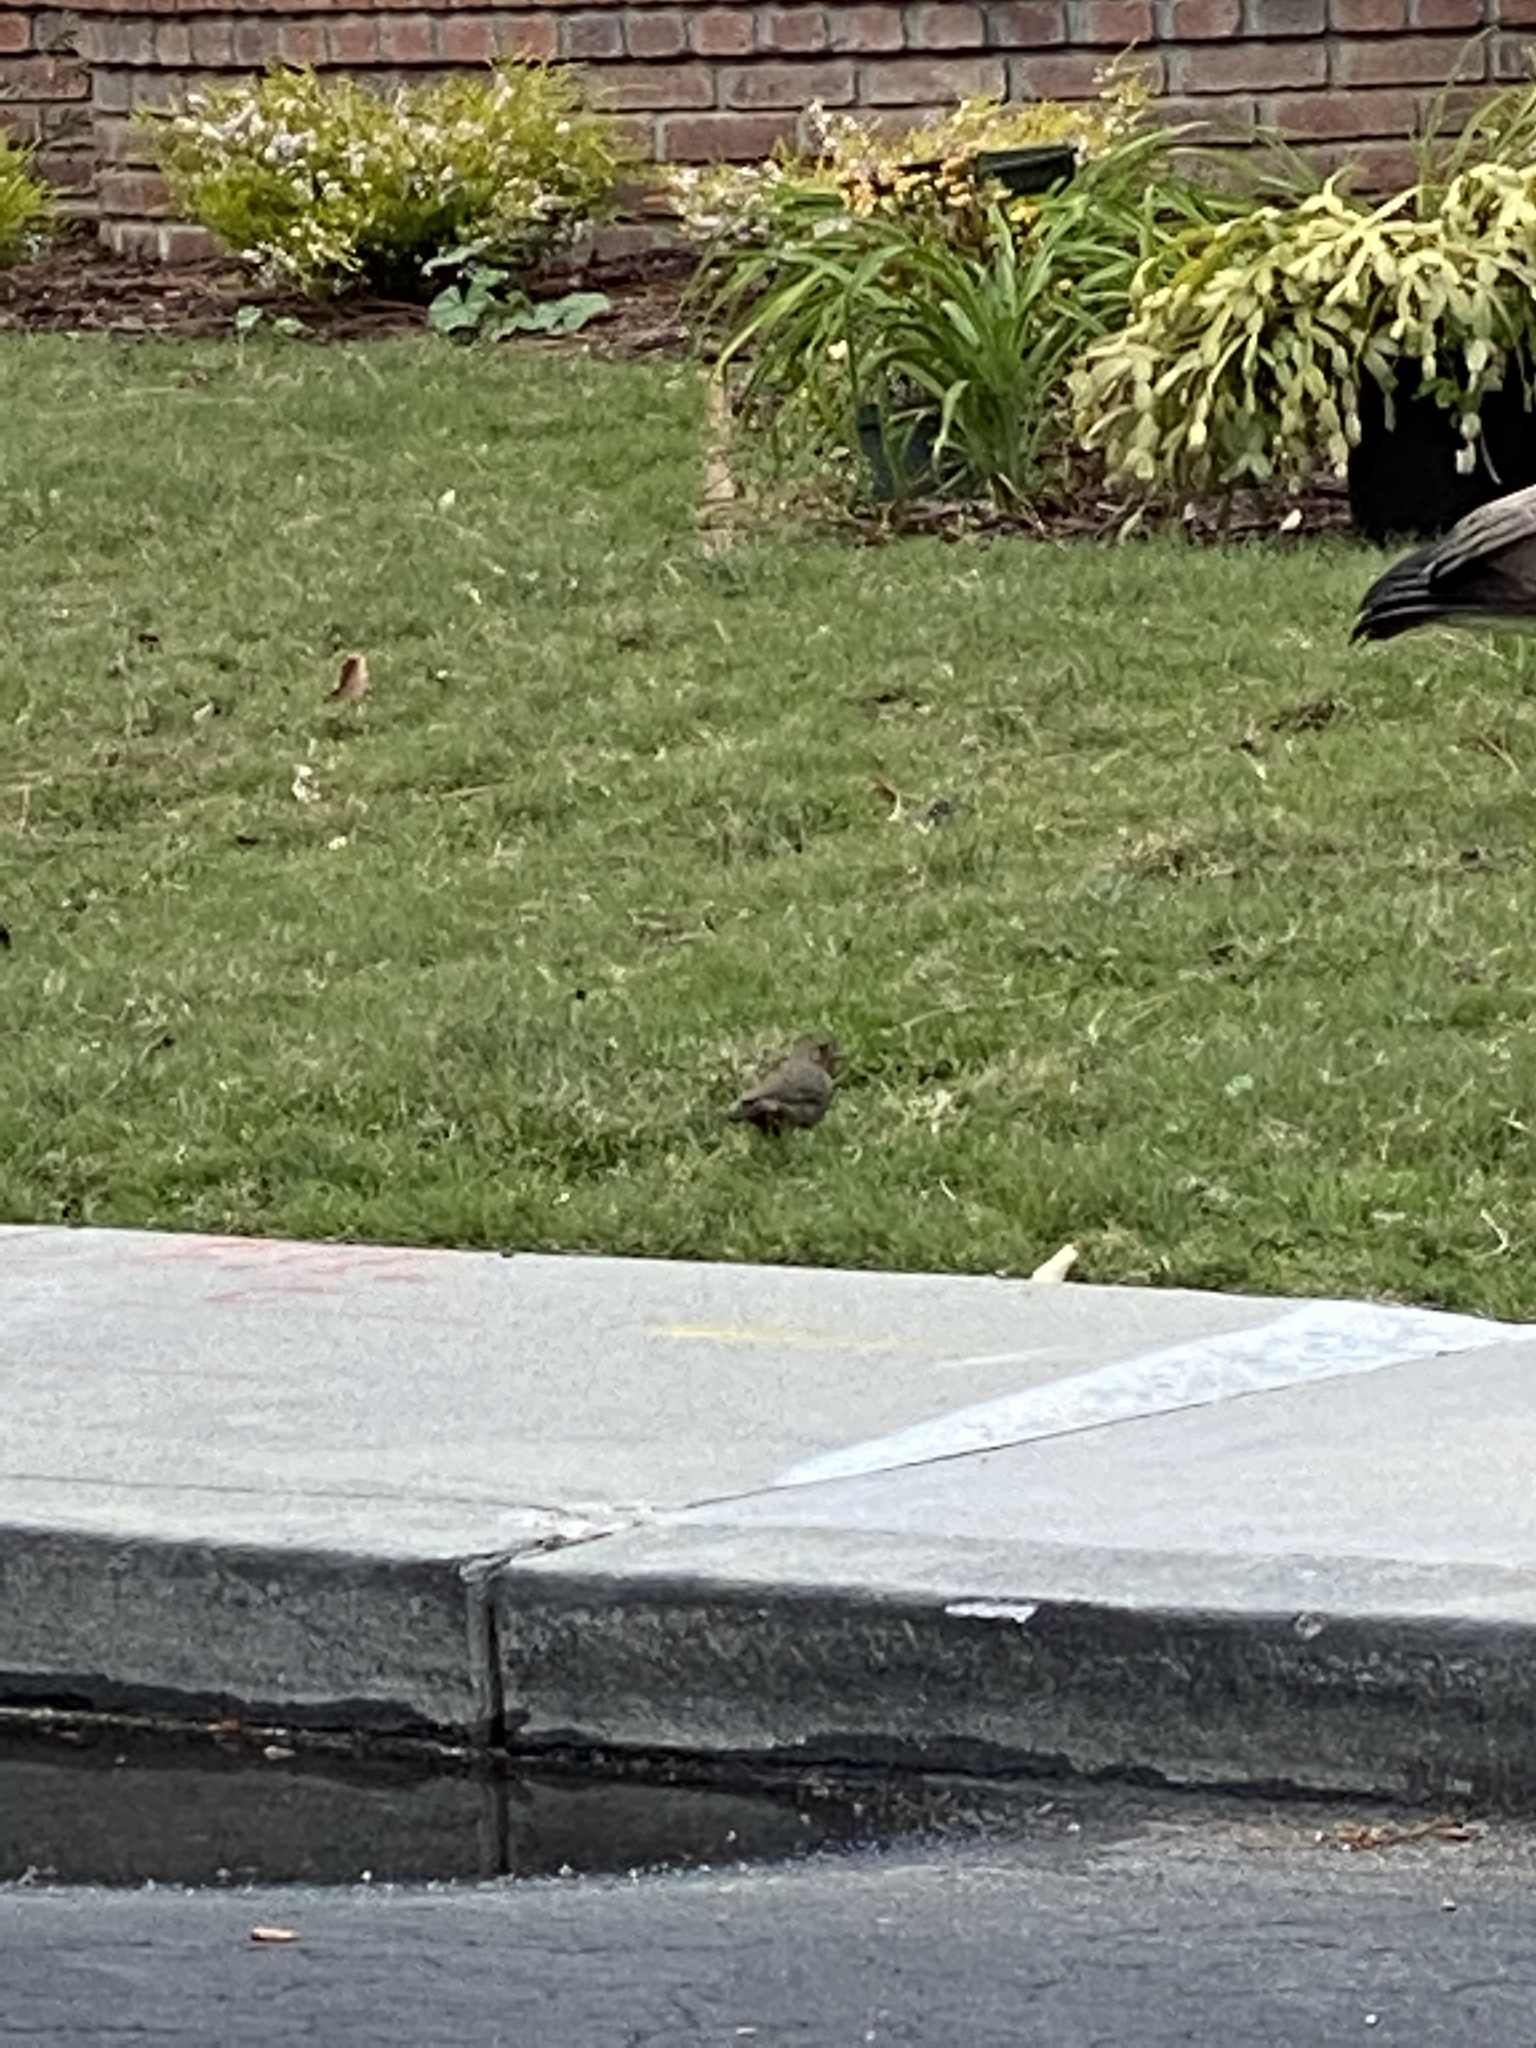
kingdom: Animalia
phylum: Chordata
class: Aves
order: Passeriformes
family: Passerellidae
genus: Melozone
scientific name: Melozone crissalis
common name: California towhee
